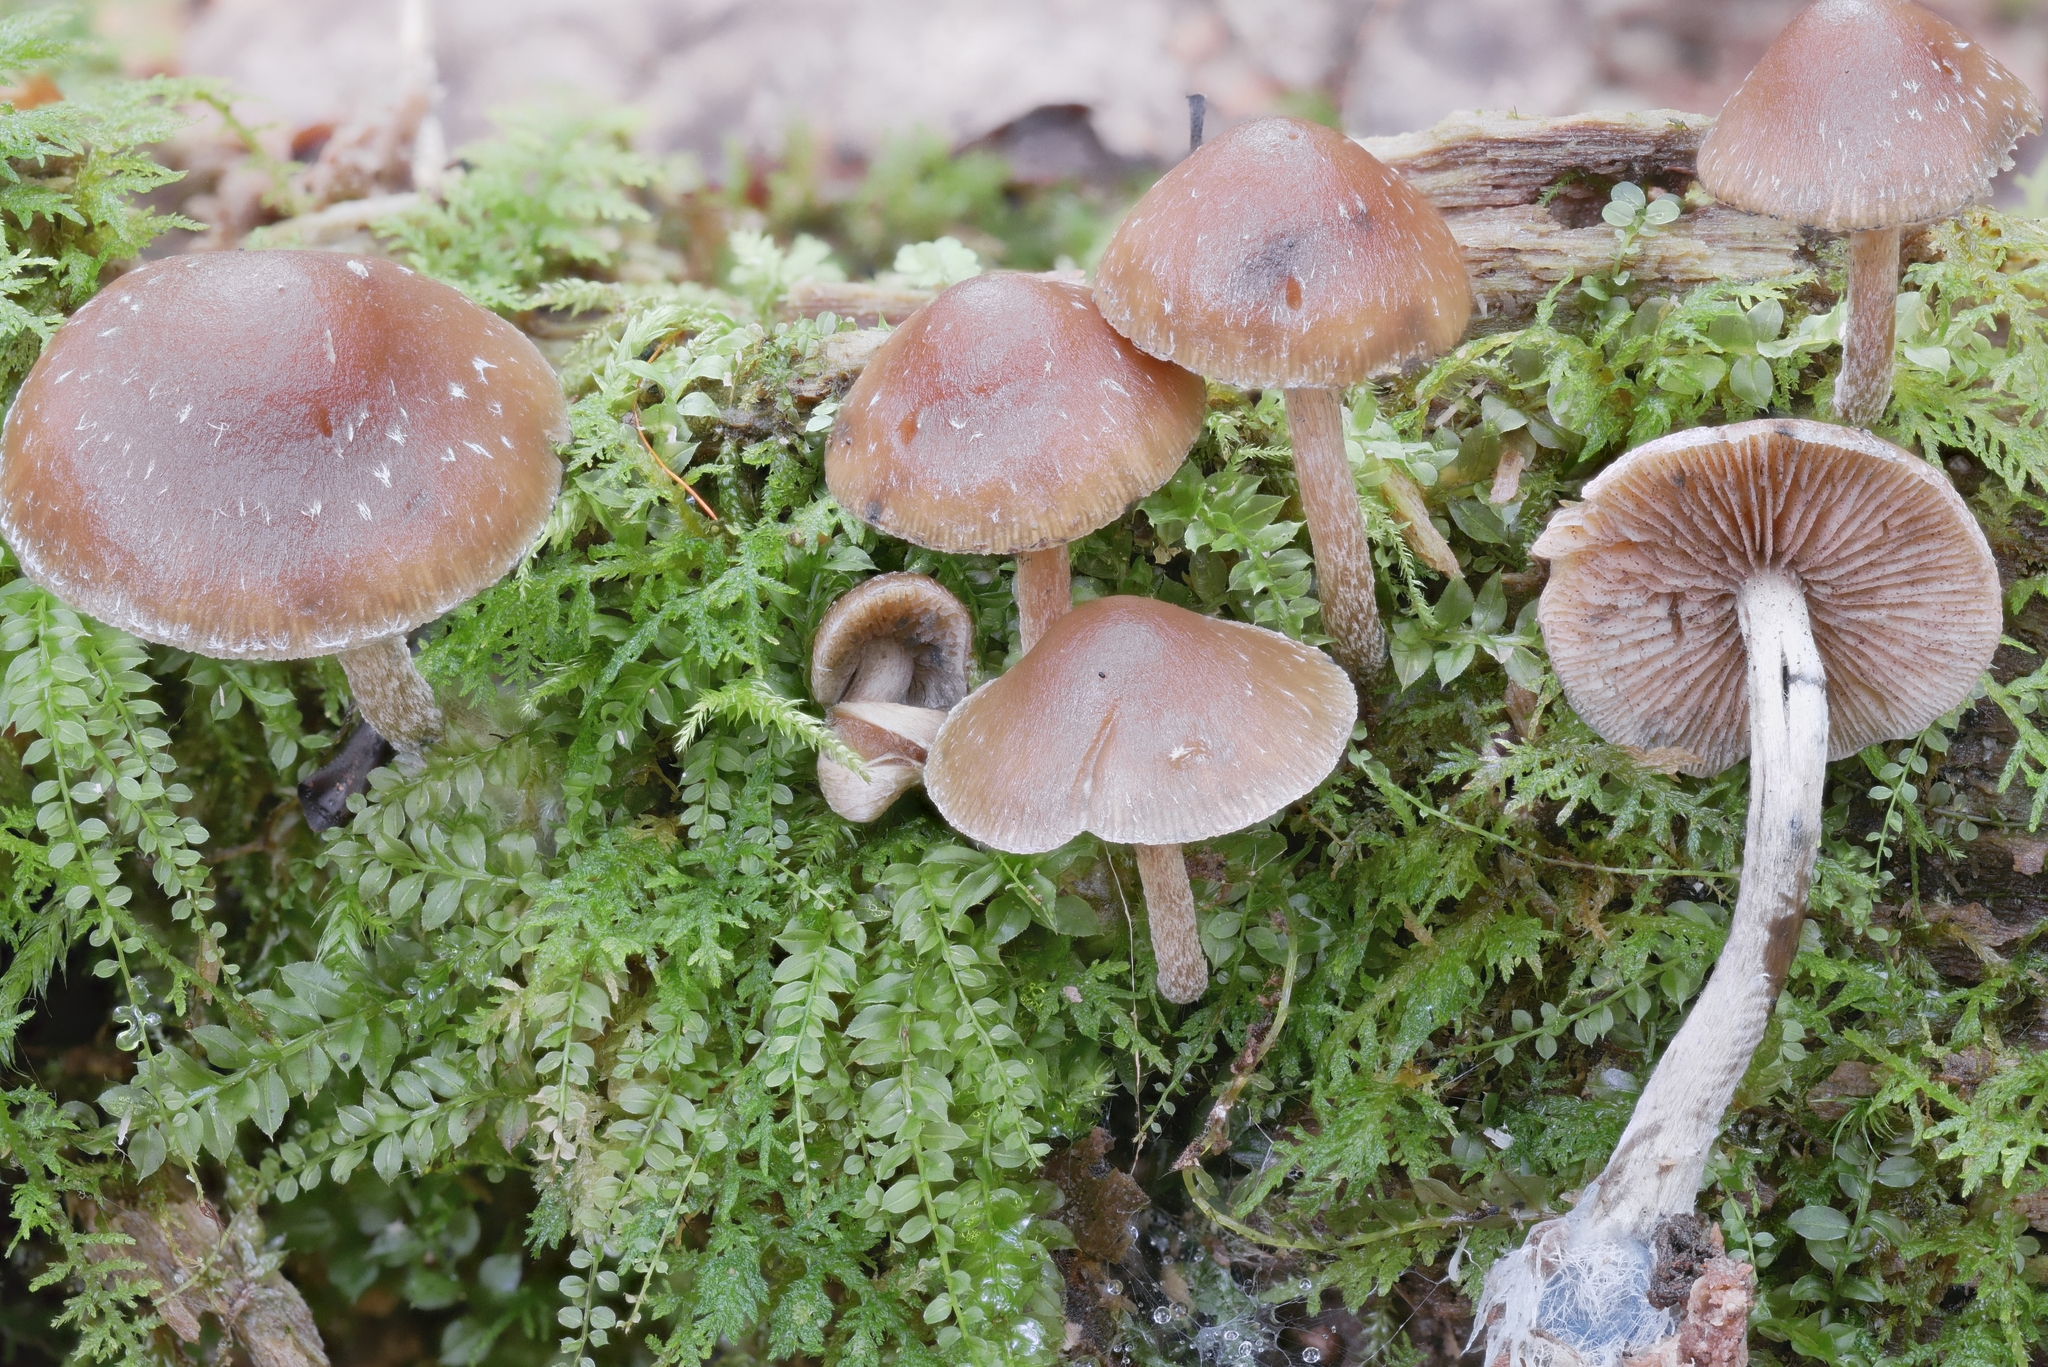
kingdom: Fungi
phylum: Basidiomycota
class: Agaricomycetes
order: Agaricales
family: Hymenogastraceae
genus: Psilocybe
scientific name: Psilocybe caerulipes
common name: Blue-foot
